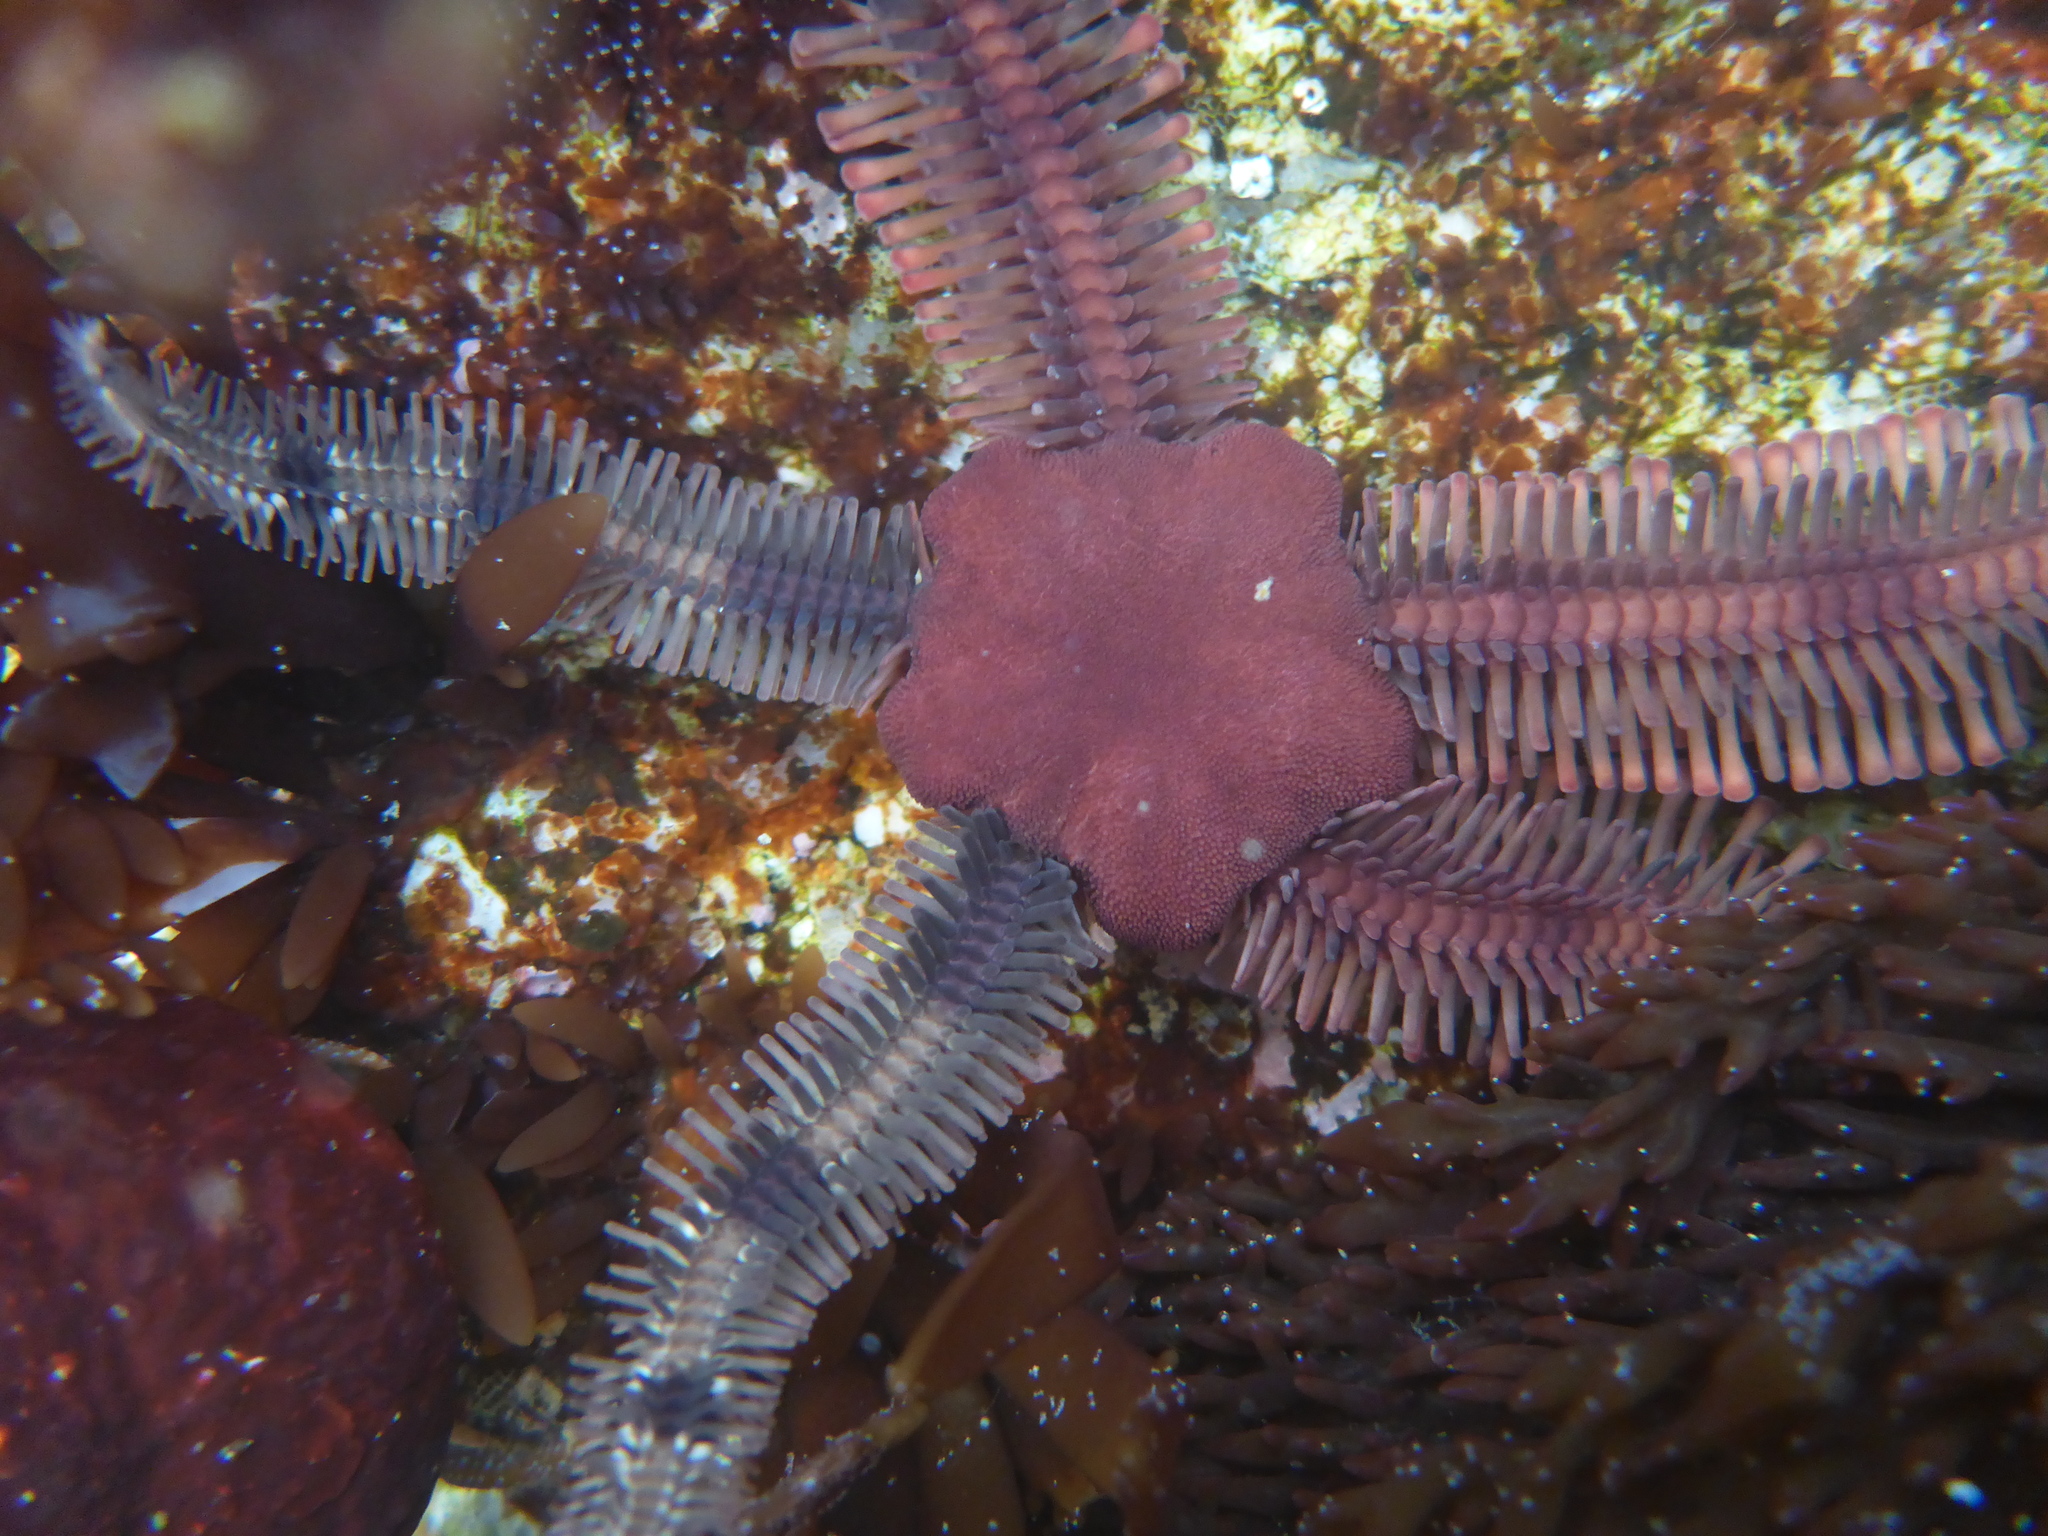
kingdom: Animalia
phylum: Echinodermata
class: Ophiuroidea
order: Ophiacanthida
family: Ophiopteridae
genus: Ophiopteris
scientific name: Ophiopteris papillosa
